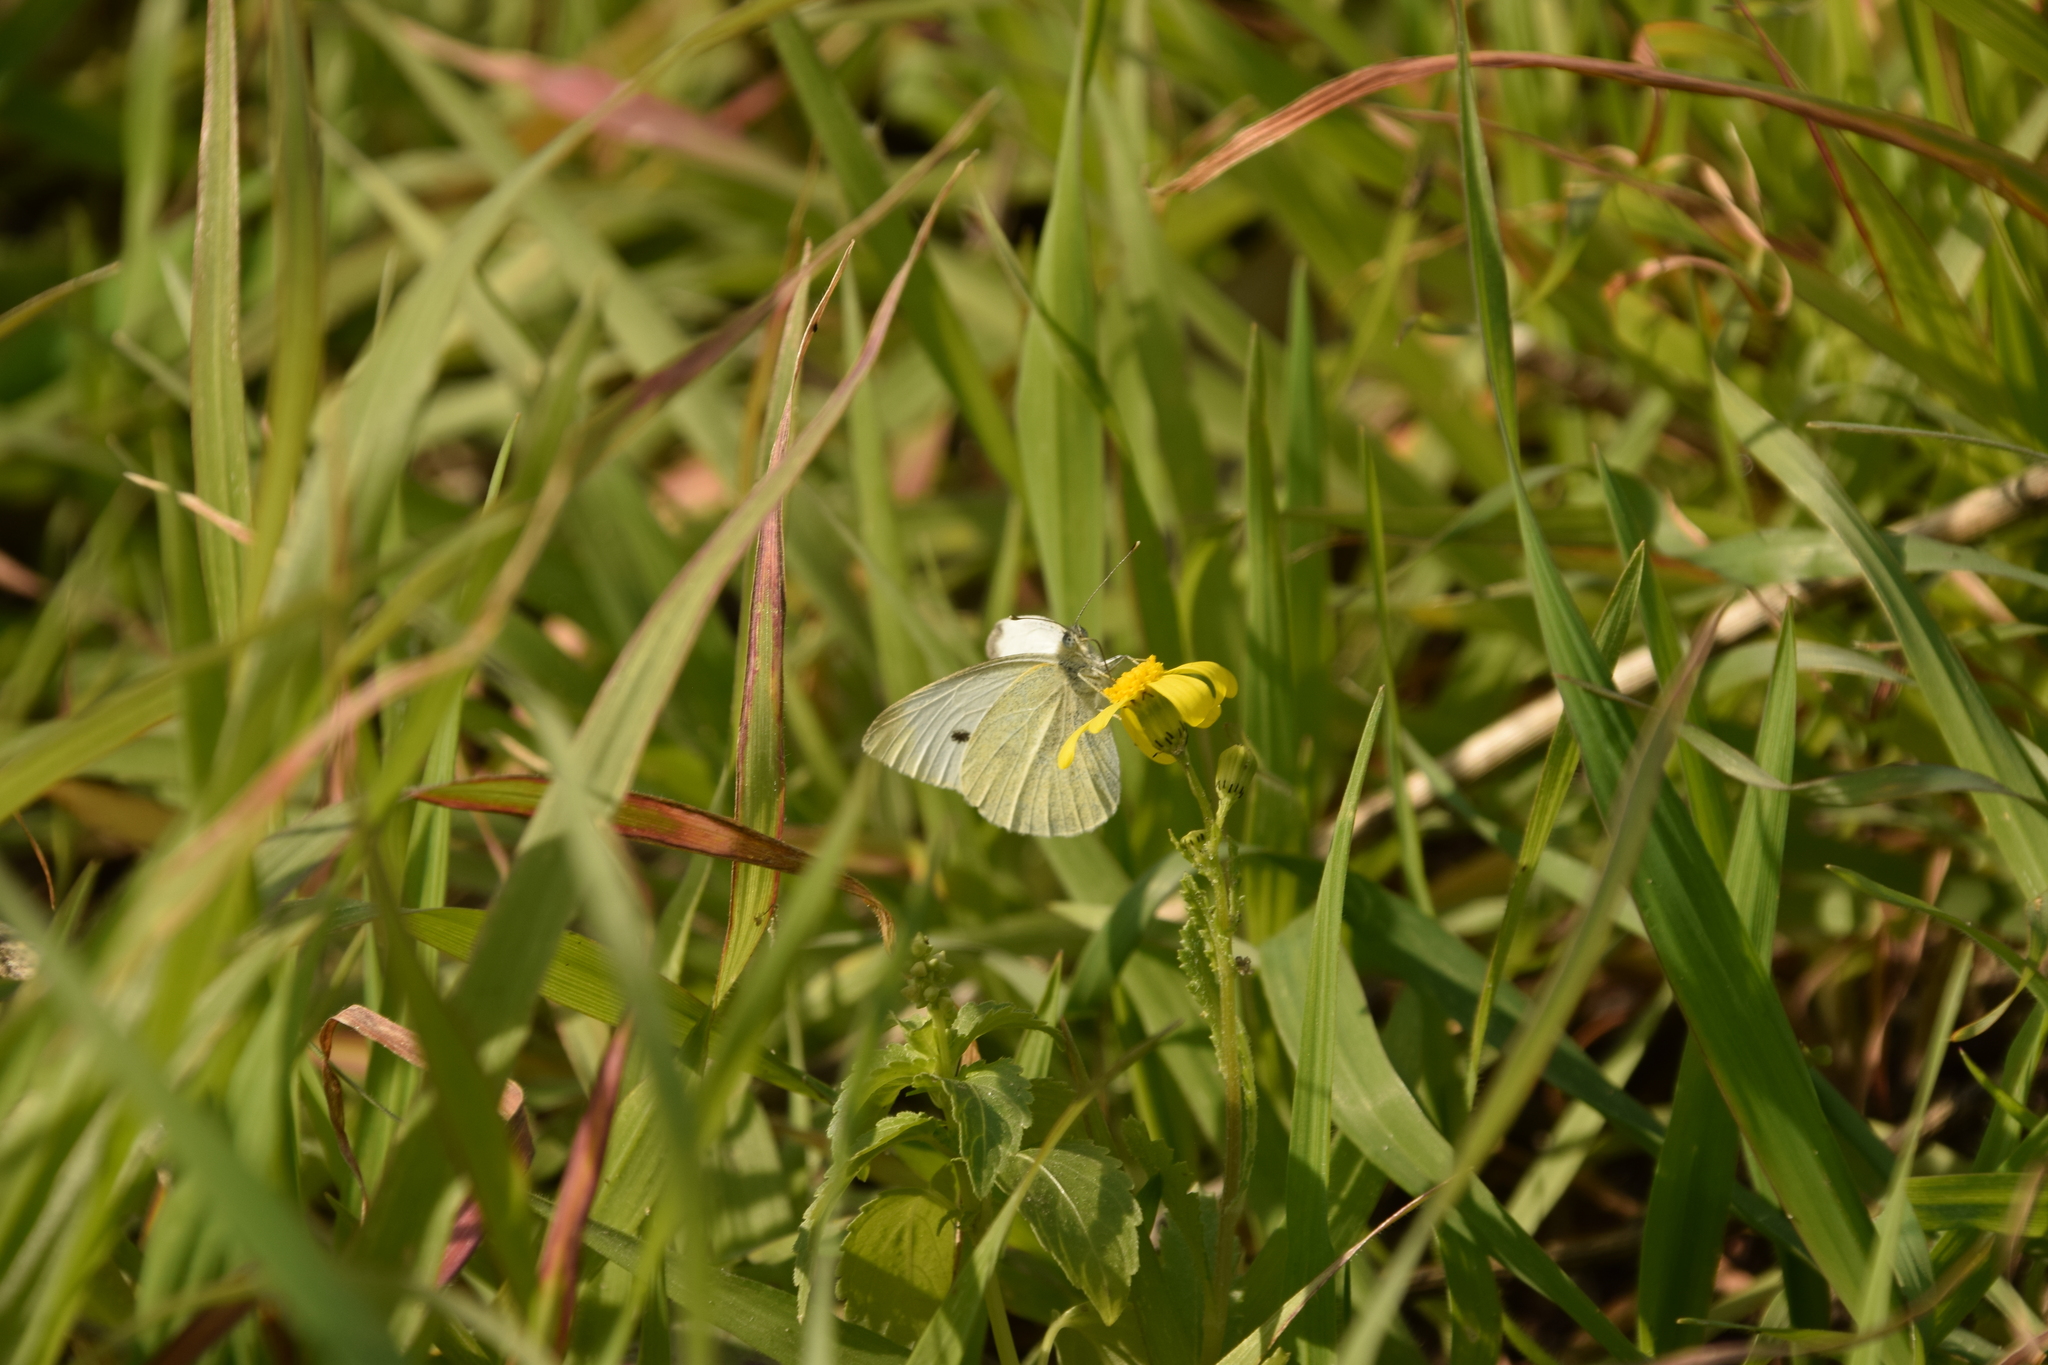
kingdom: Animalia
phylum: Arthropoda
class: Insecta
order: Lepidoptera
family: Pieridae
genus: Pieris
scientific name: Pieris rapae
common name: Small white
